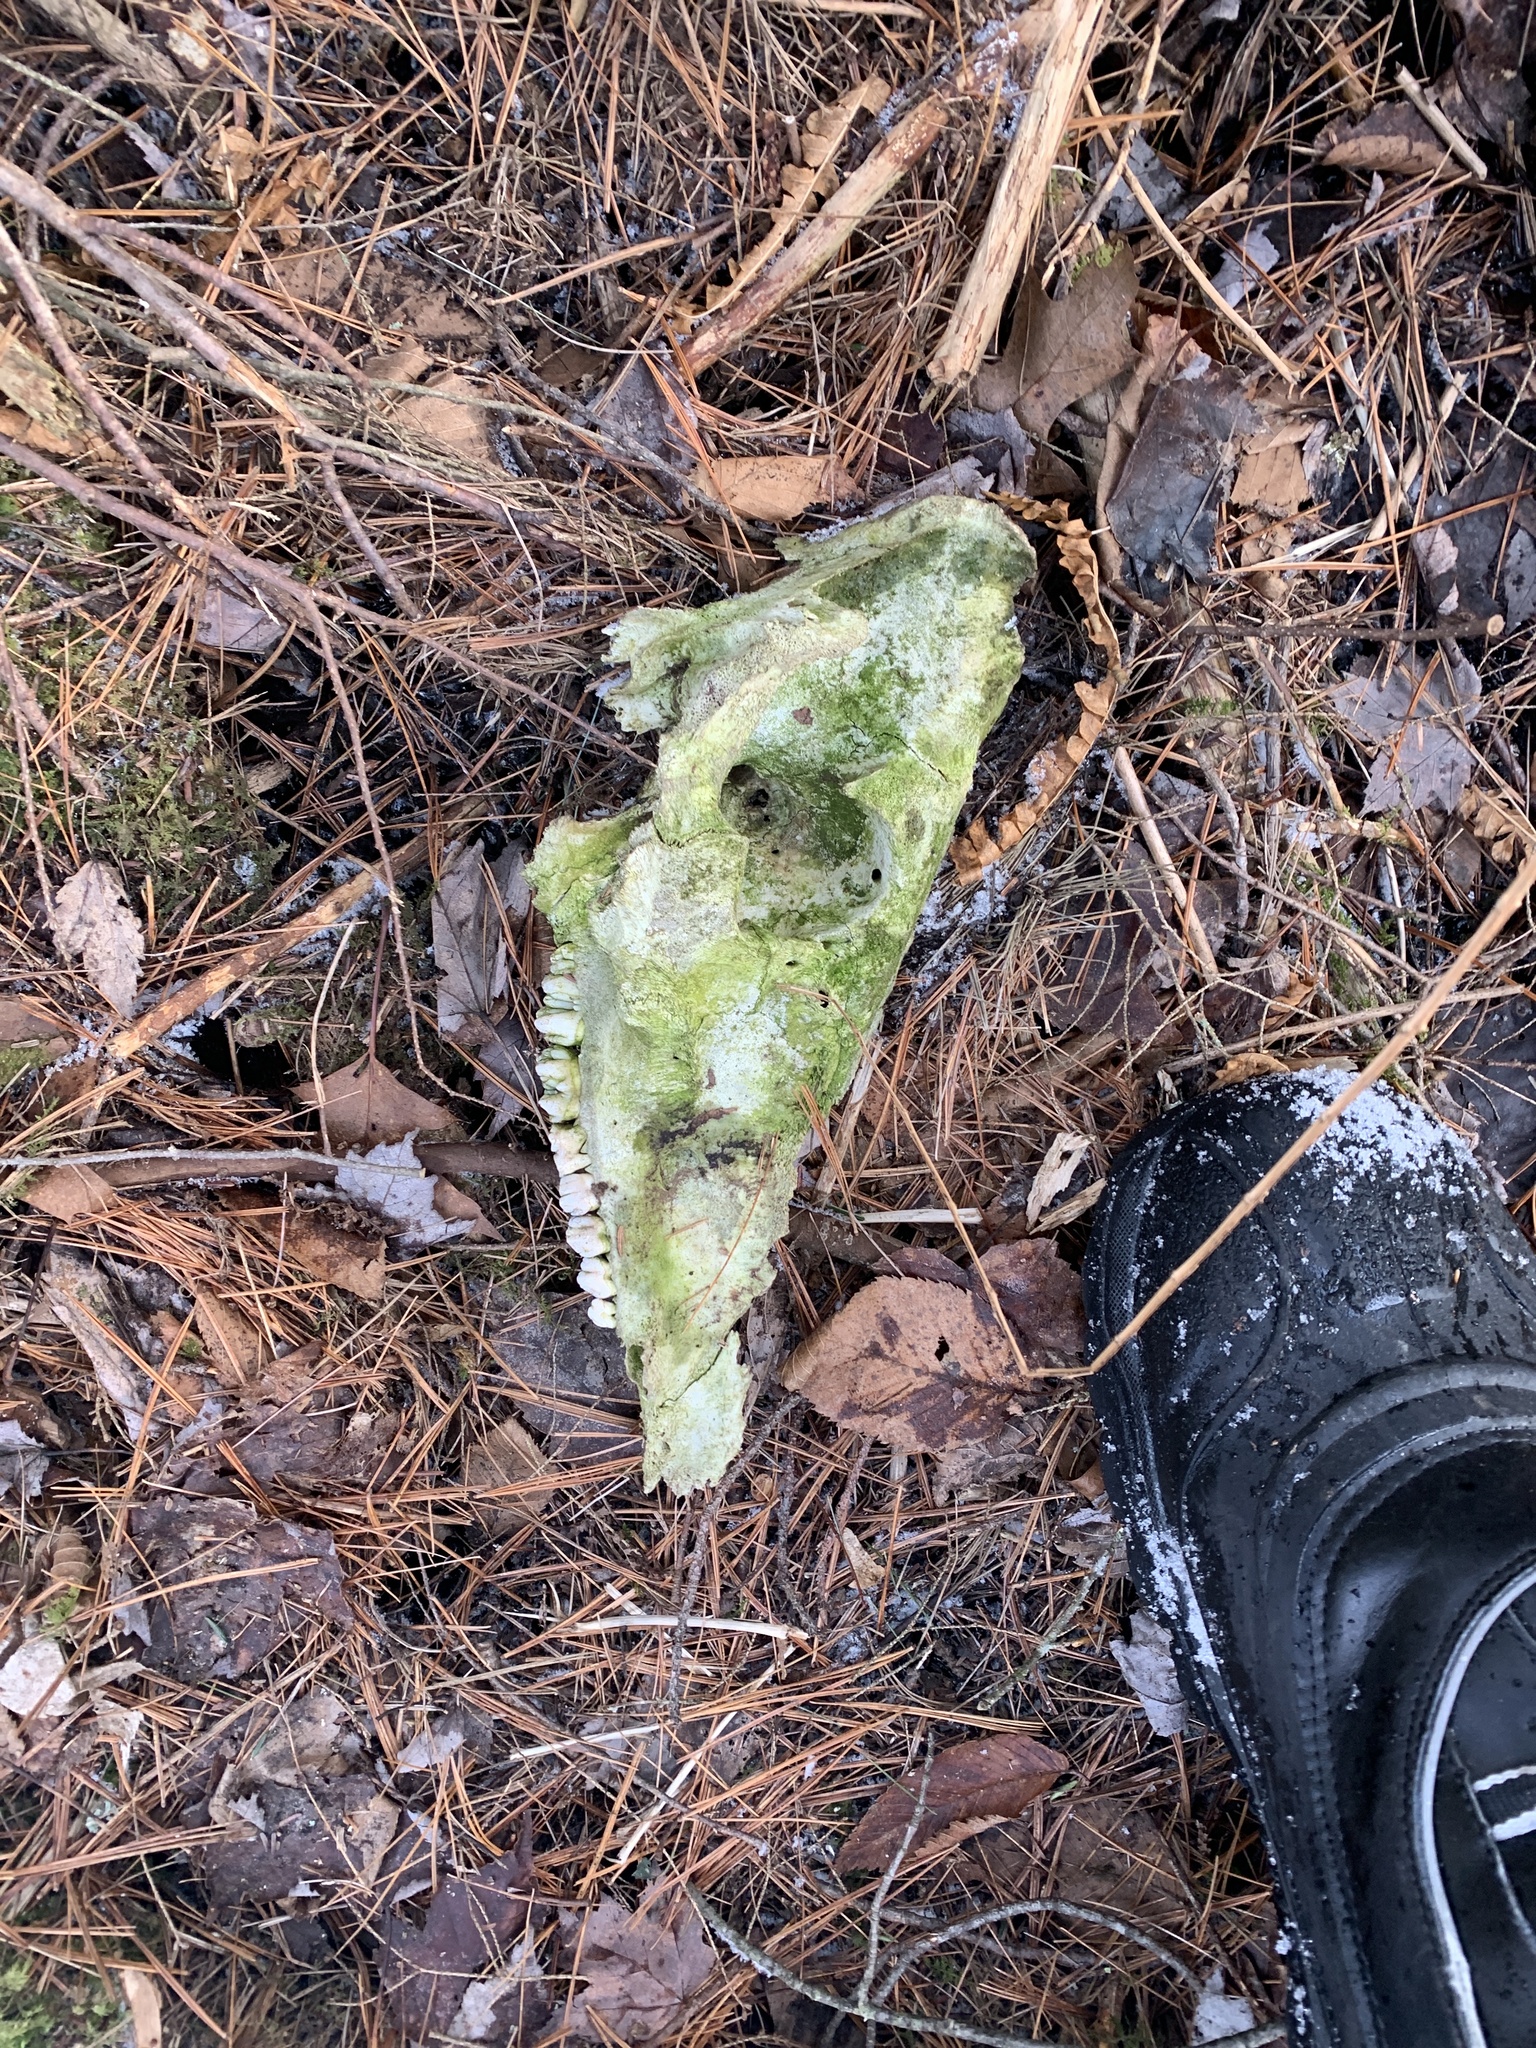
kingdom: Animalia
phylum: Chordata
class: Mammalia
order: Artiodactyla
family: Suidae
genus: Sus
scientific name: Sus scrofa
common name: Wild boar
